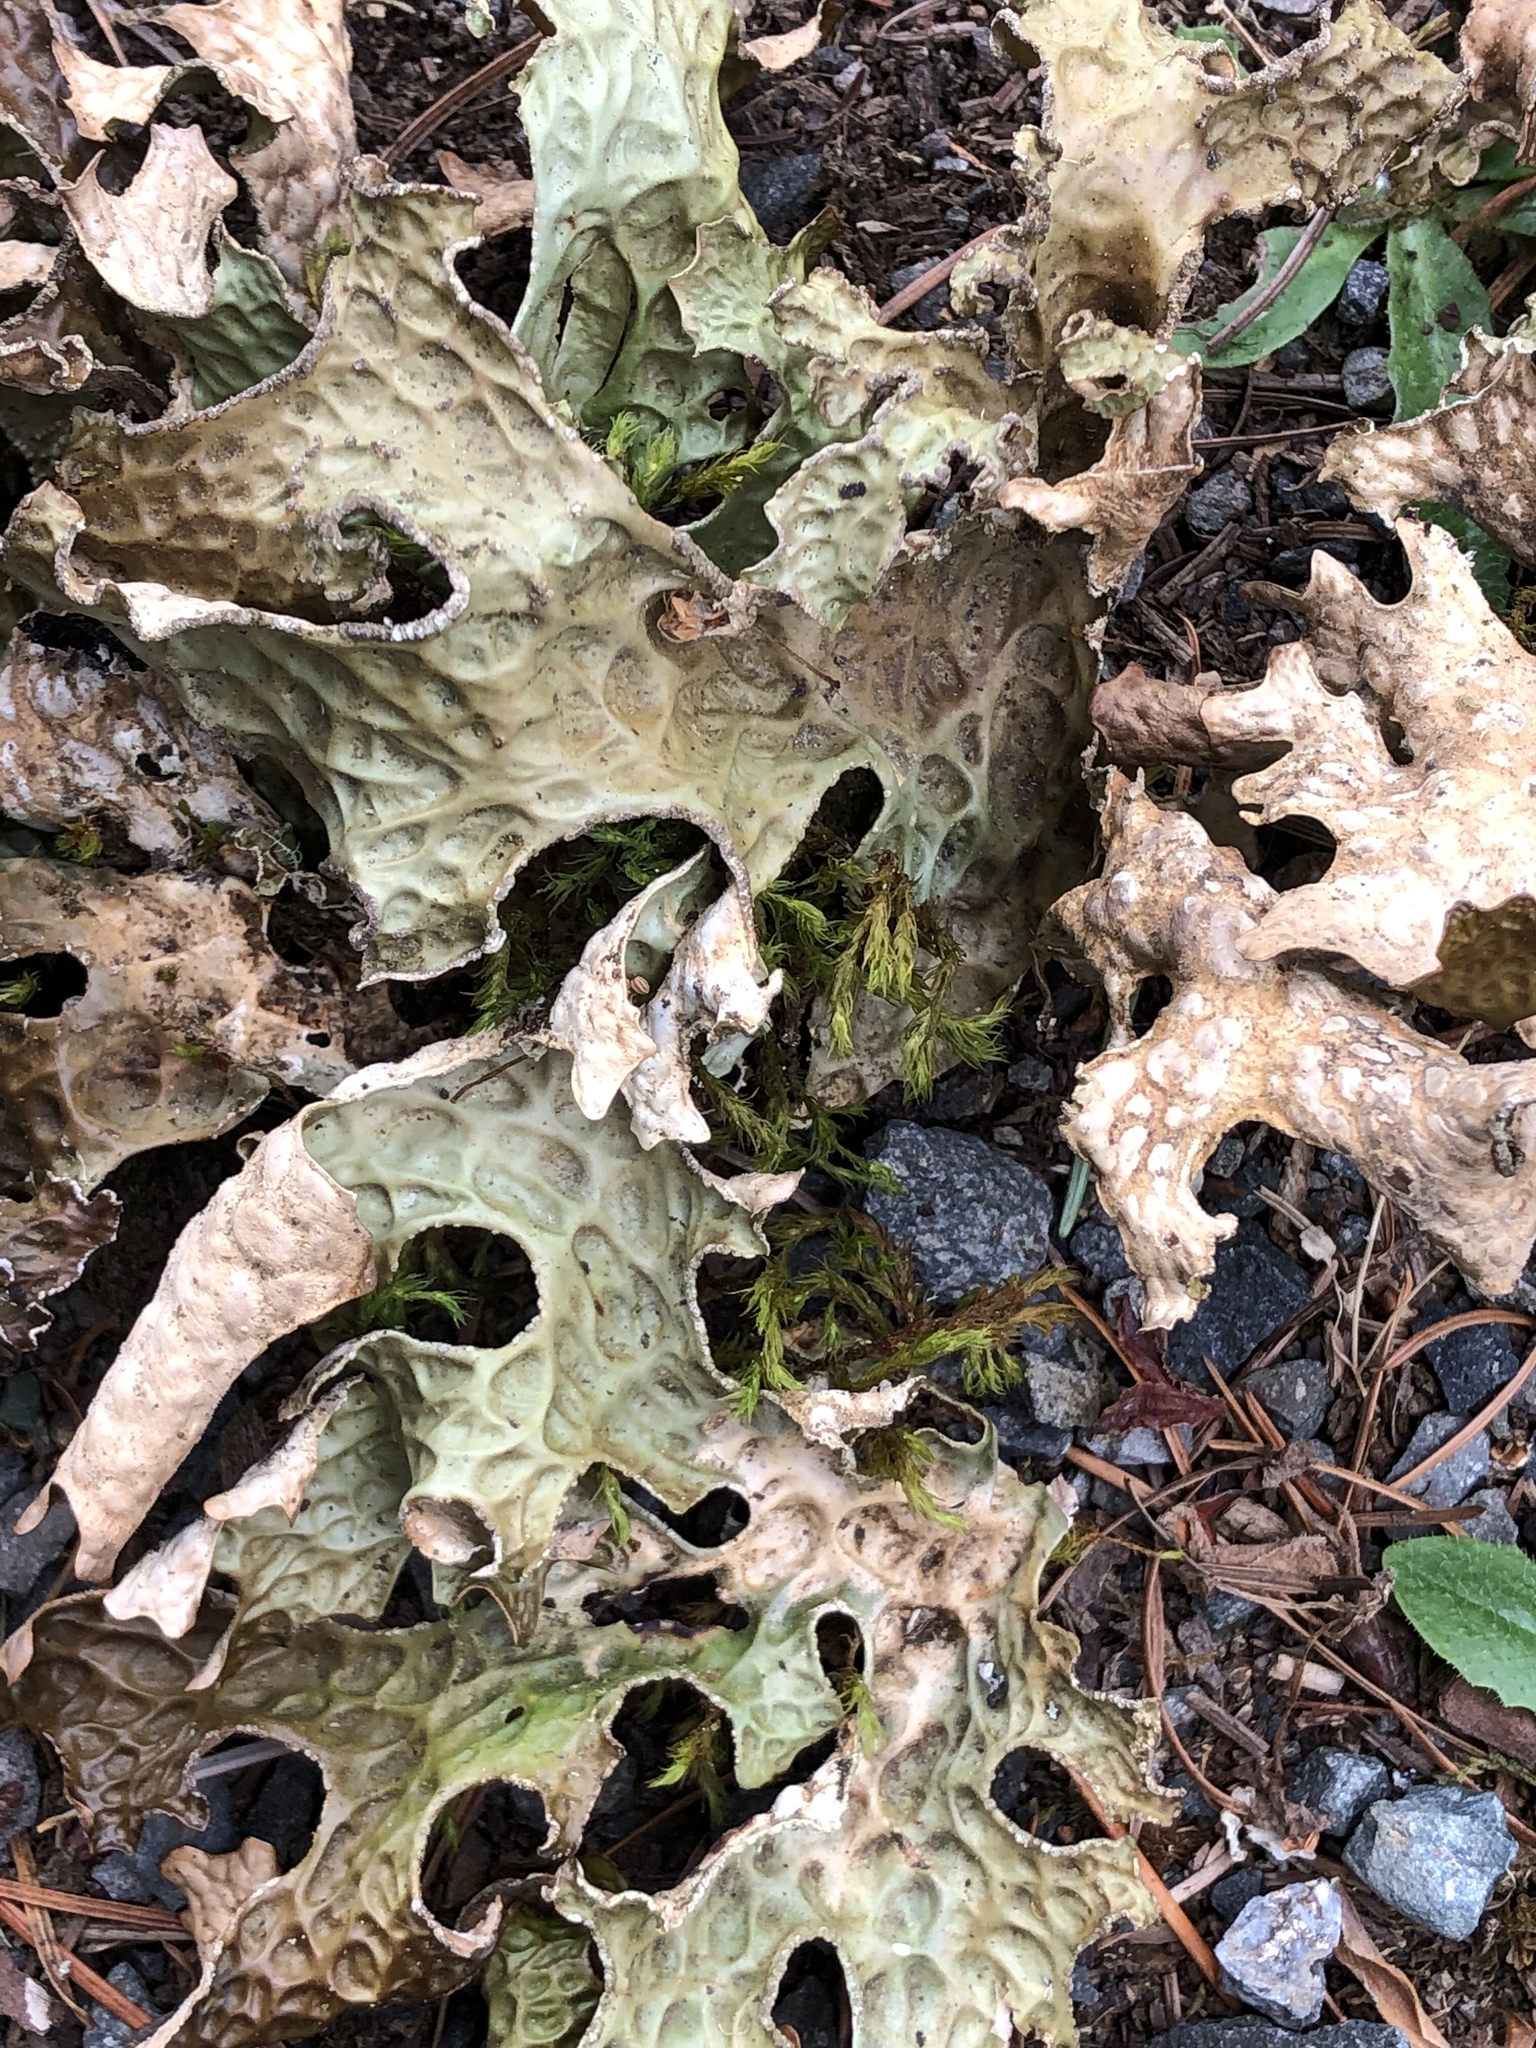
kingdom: Fungi
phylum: Ascomycota
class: Lecanoromycetes
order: Peltigerales
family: Lobariaceae
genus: Lobaria
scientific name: Lobaria pulmonaria
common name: Lungwort
